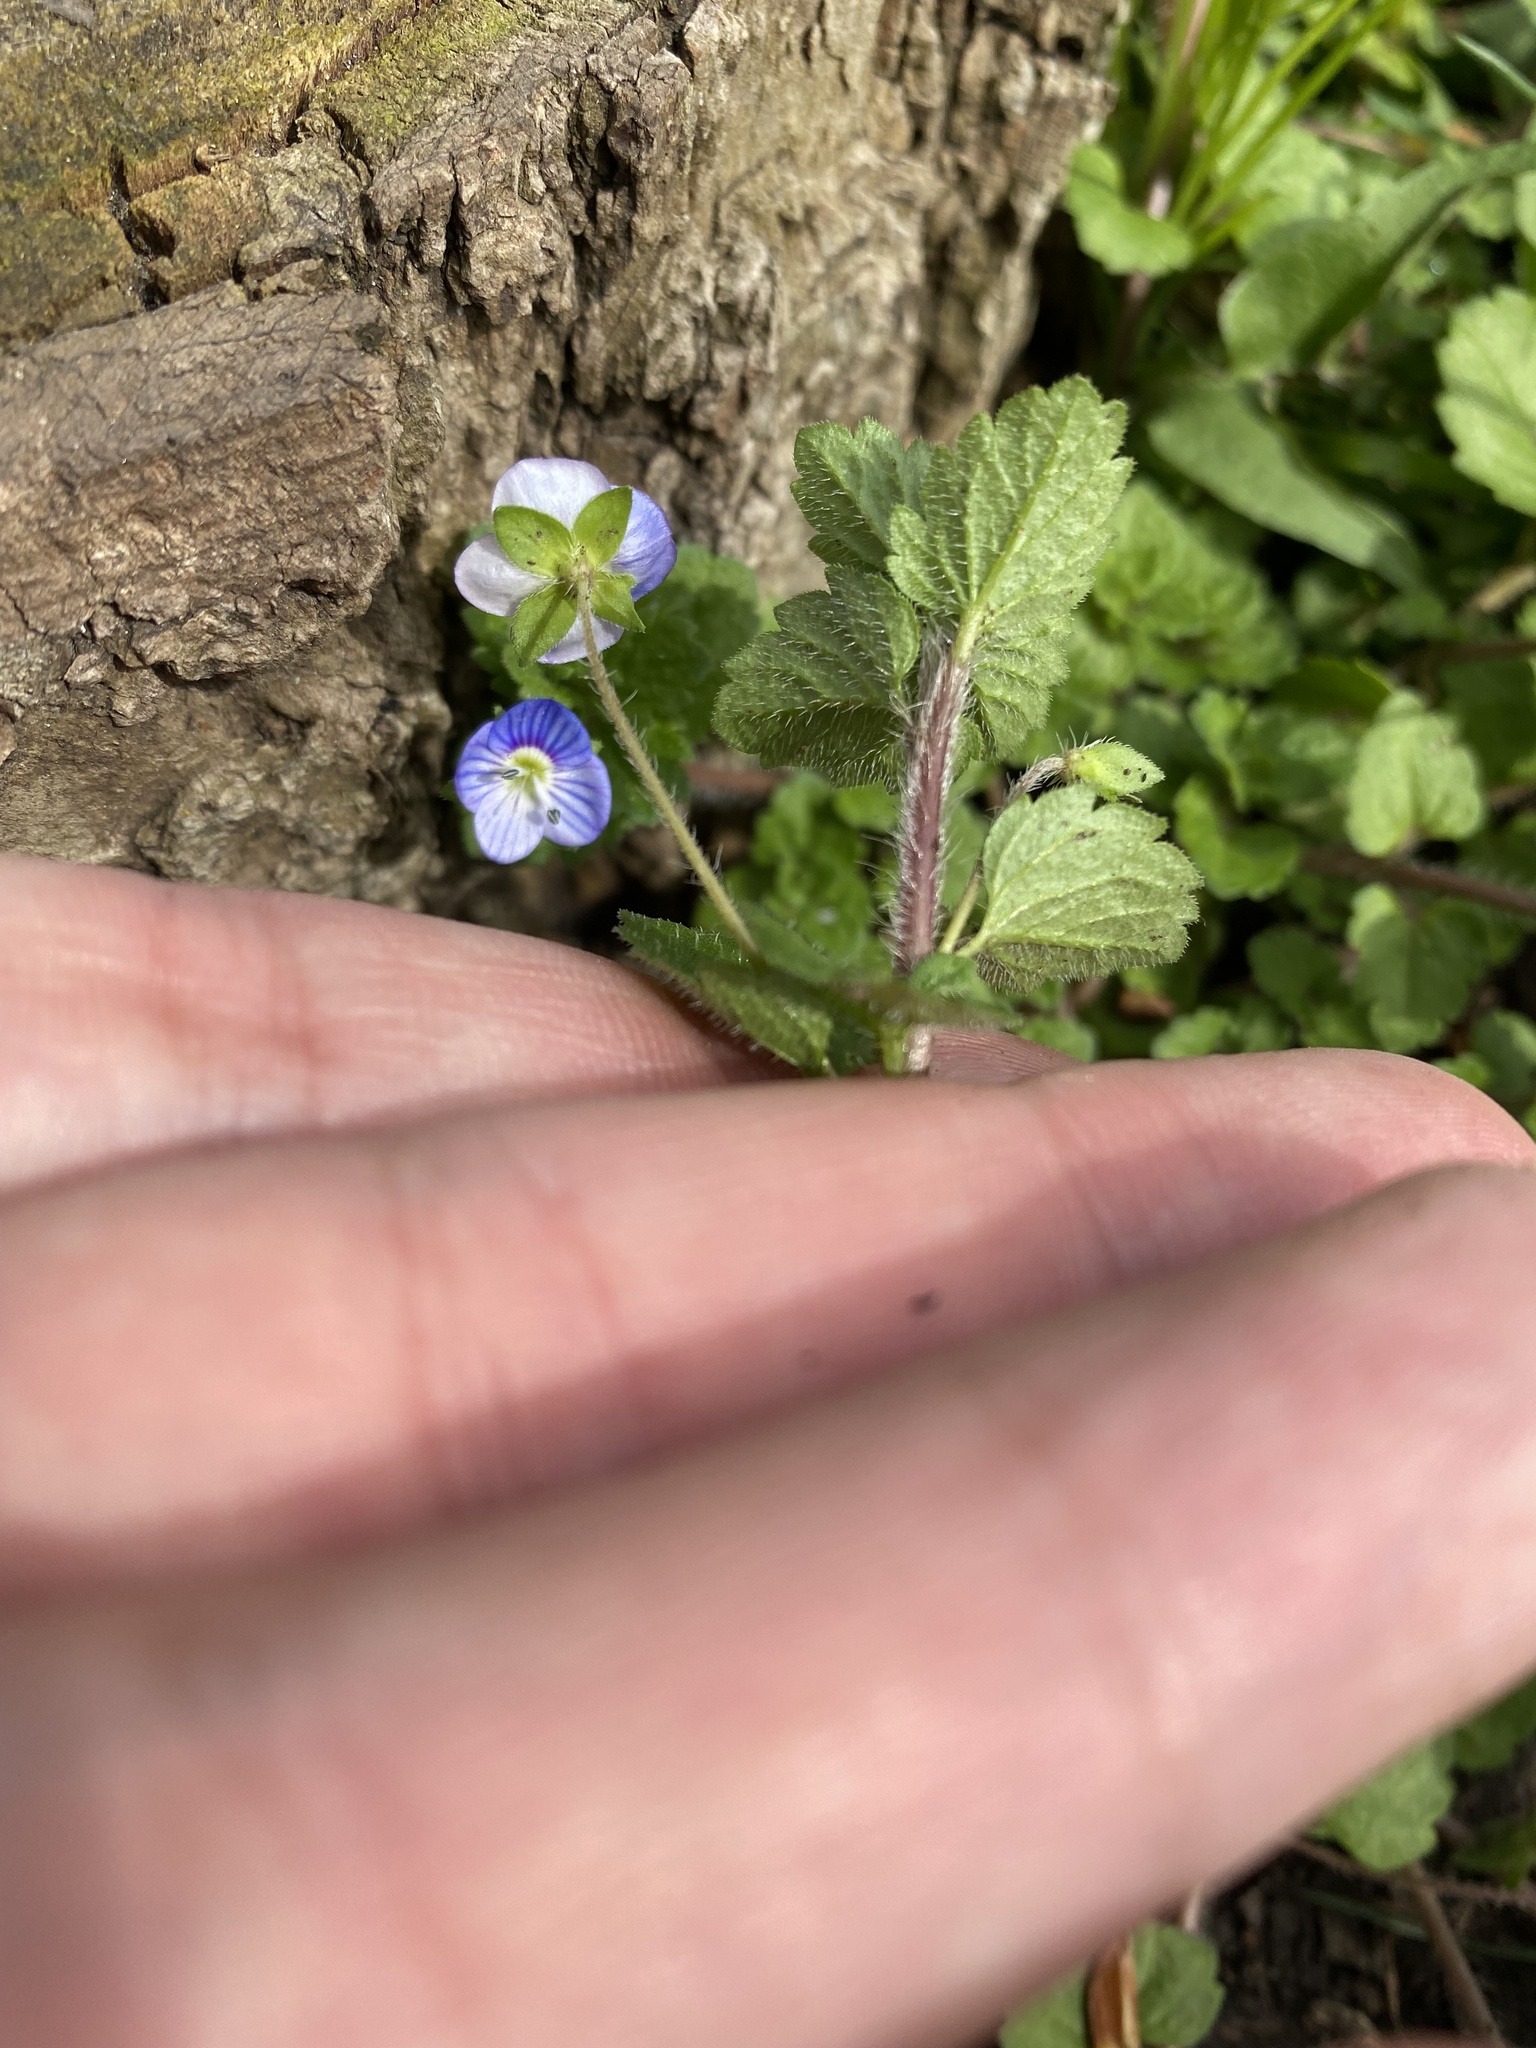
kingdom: Plantae
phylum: Tracheophyta
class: Magnoliopsida
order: Lamiales
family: Plantaginaceae
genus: Veronica
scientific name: Veronica persica
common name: Common field-speedwell
